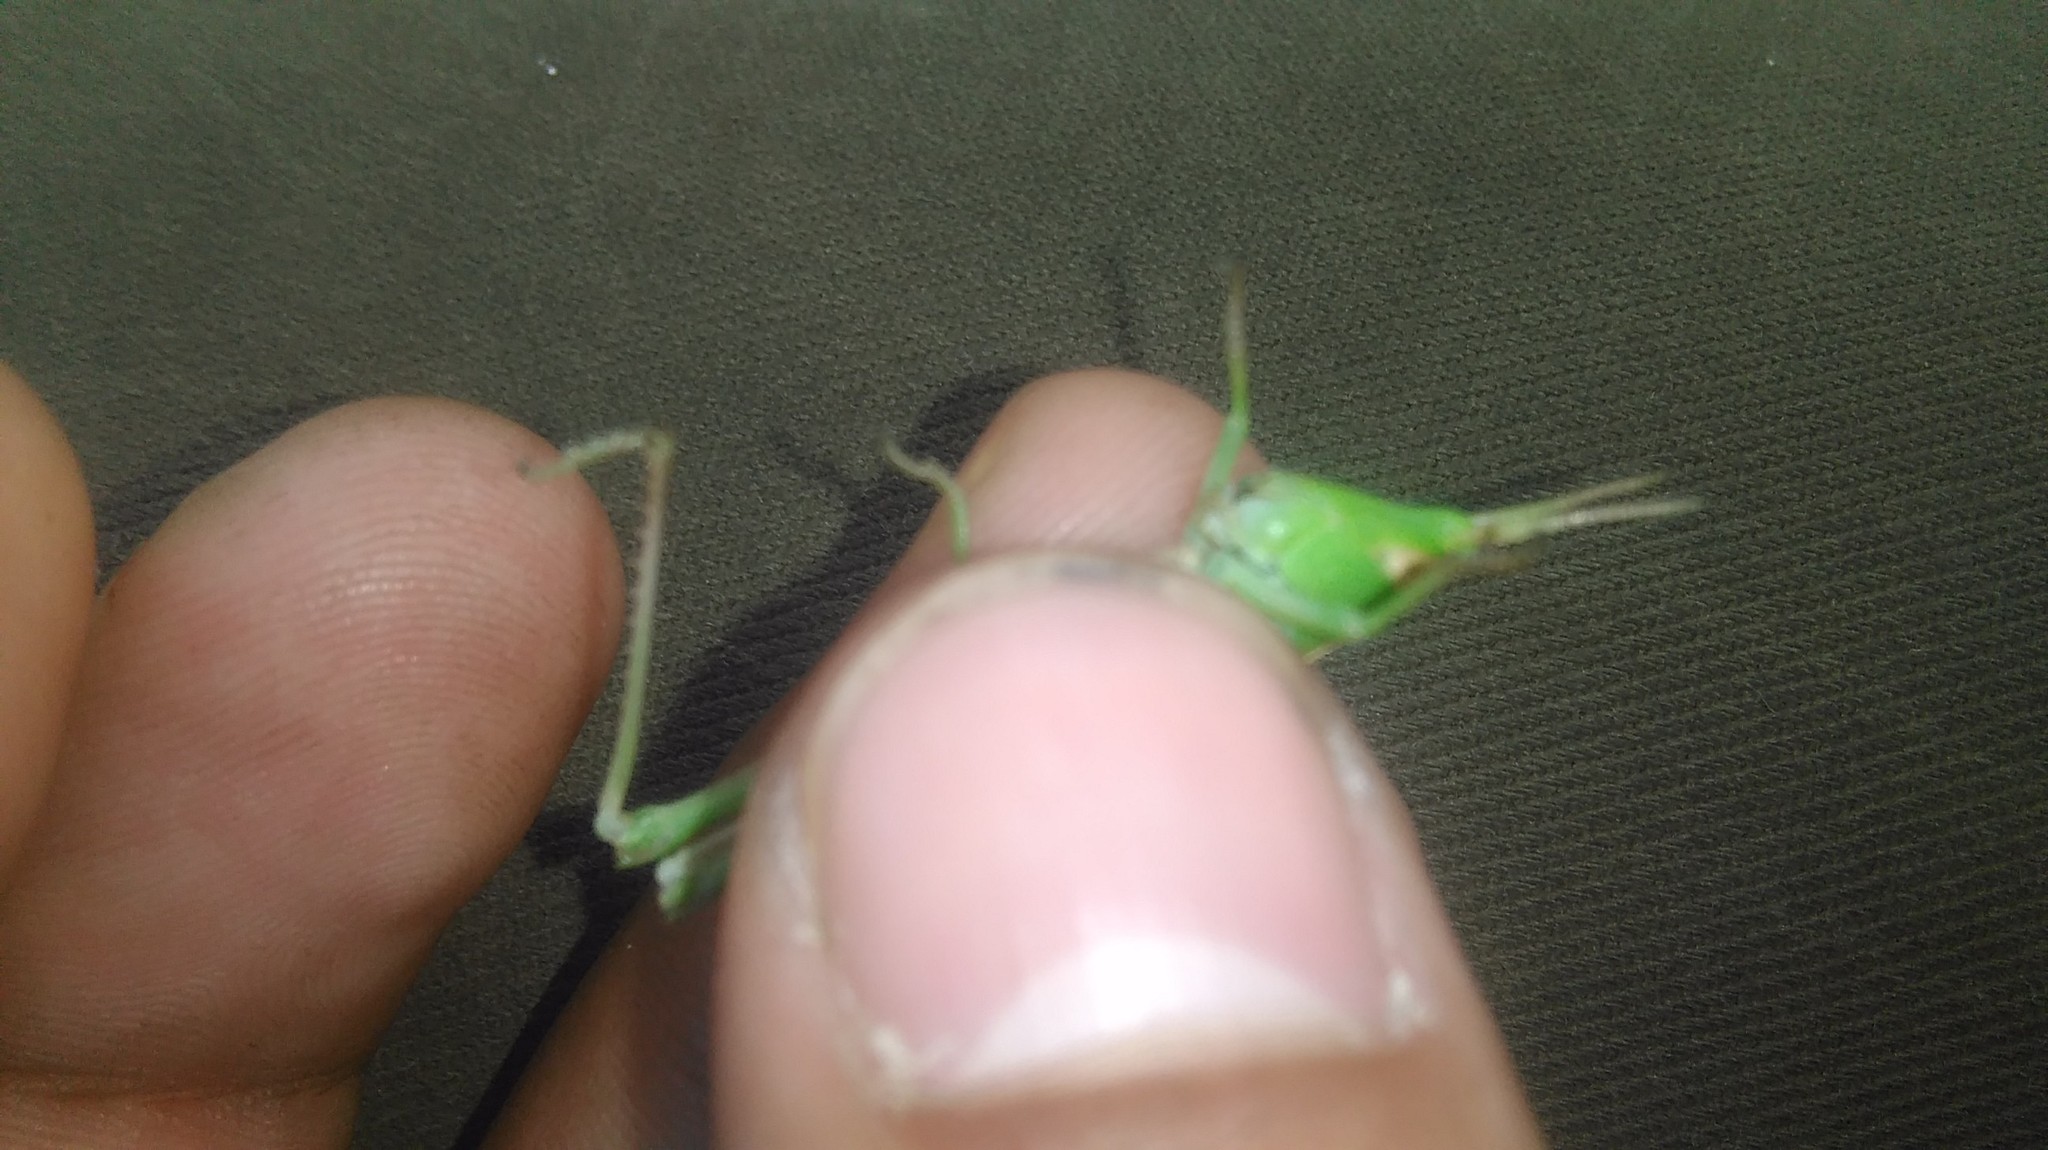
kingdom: Animalia
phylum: Arthropoda
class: Insecta
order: Orthoptera
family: Acrididae
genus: Metaleptea
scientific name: Metaleptea adspersa
